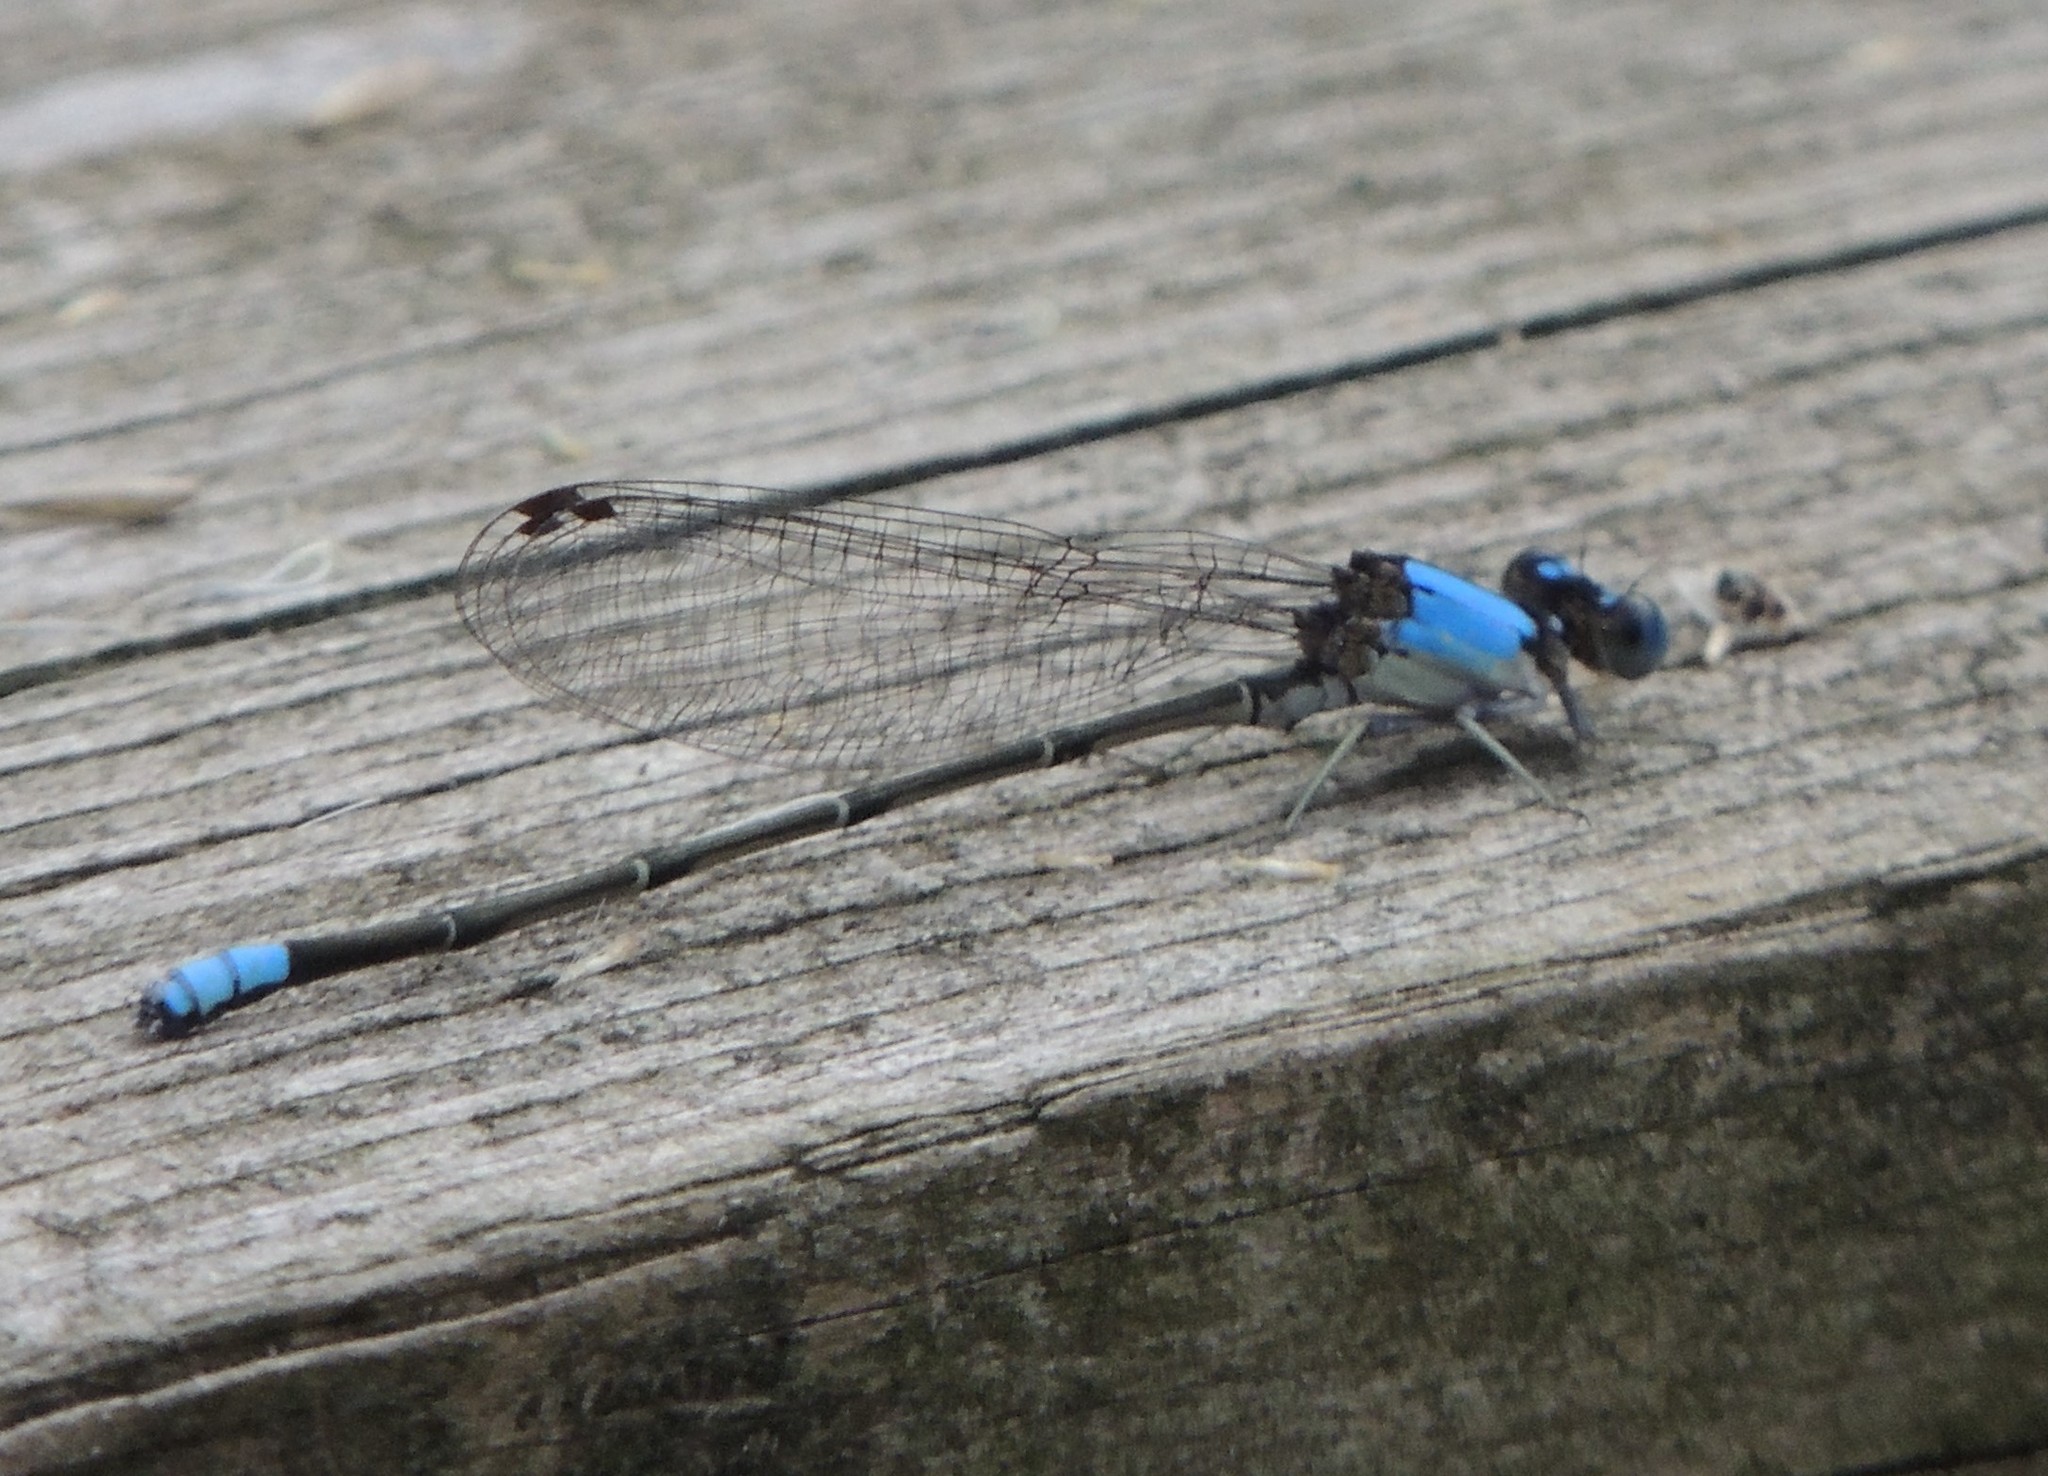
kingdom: Animalia
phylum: Arthropoda
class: Insecta
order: Odonata
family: Coenagrionidae
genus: Argia
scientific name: Argia apicalis
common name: Blue-fronted dancer
